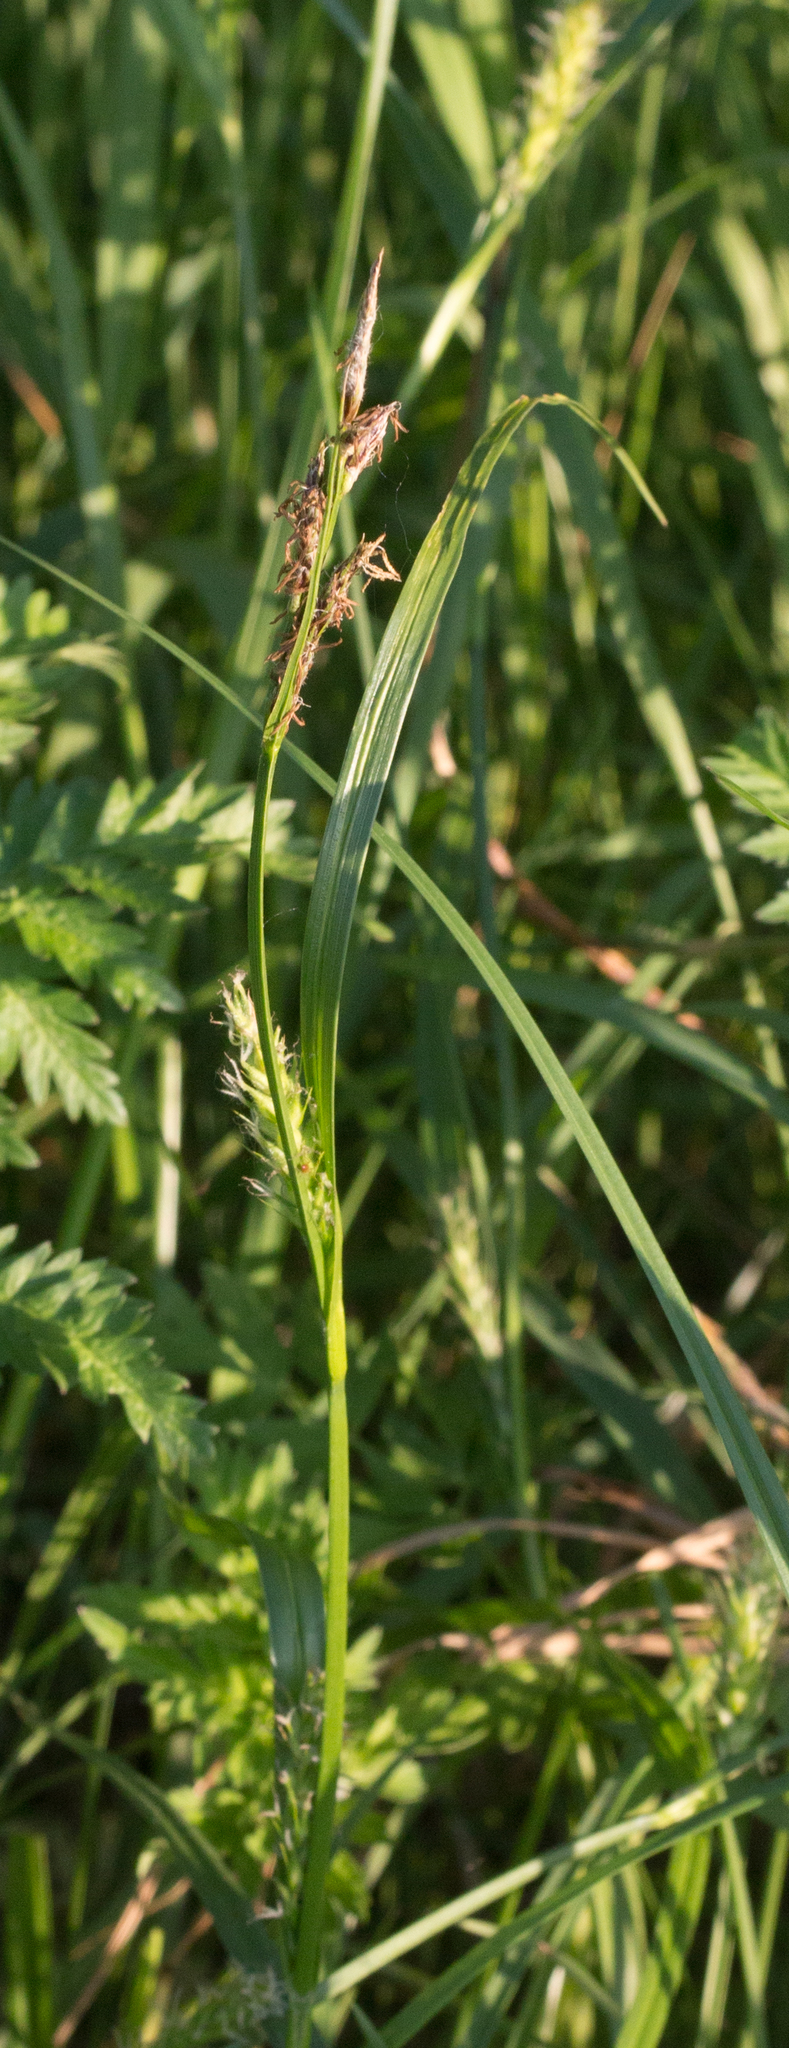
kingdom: Plantae
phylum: Tracheophyta
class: Liliopsida
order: Poales
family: Cyperaceae
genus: Carex
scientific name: Carex hirta
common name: Hairy sedge
